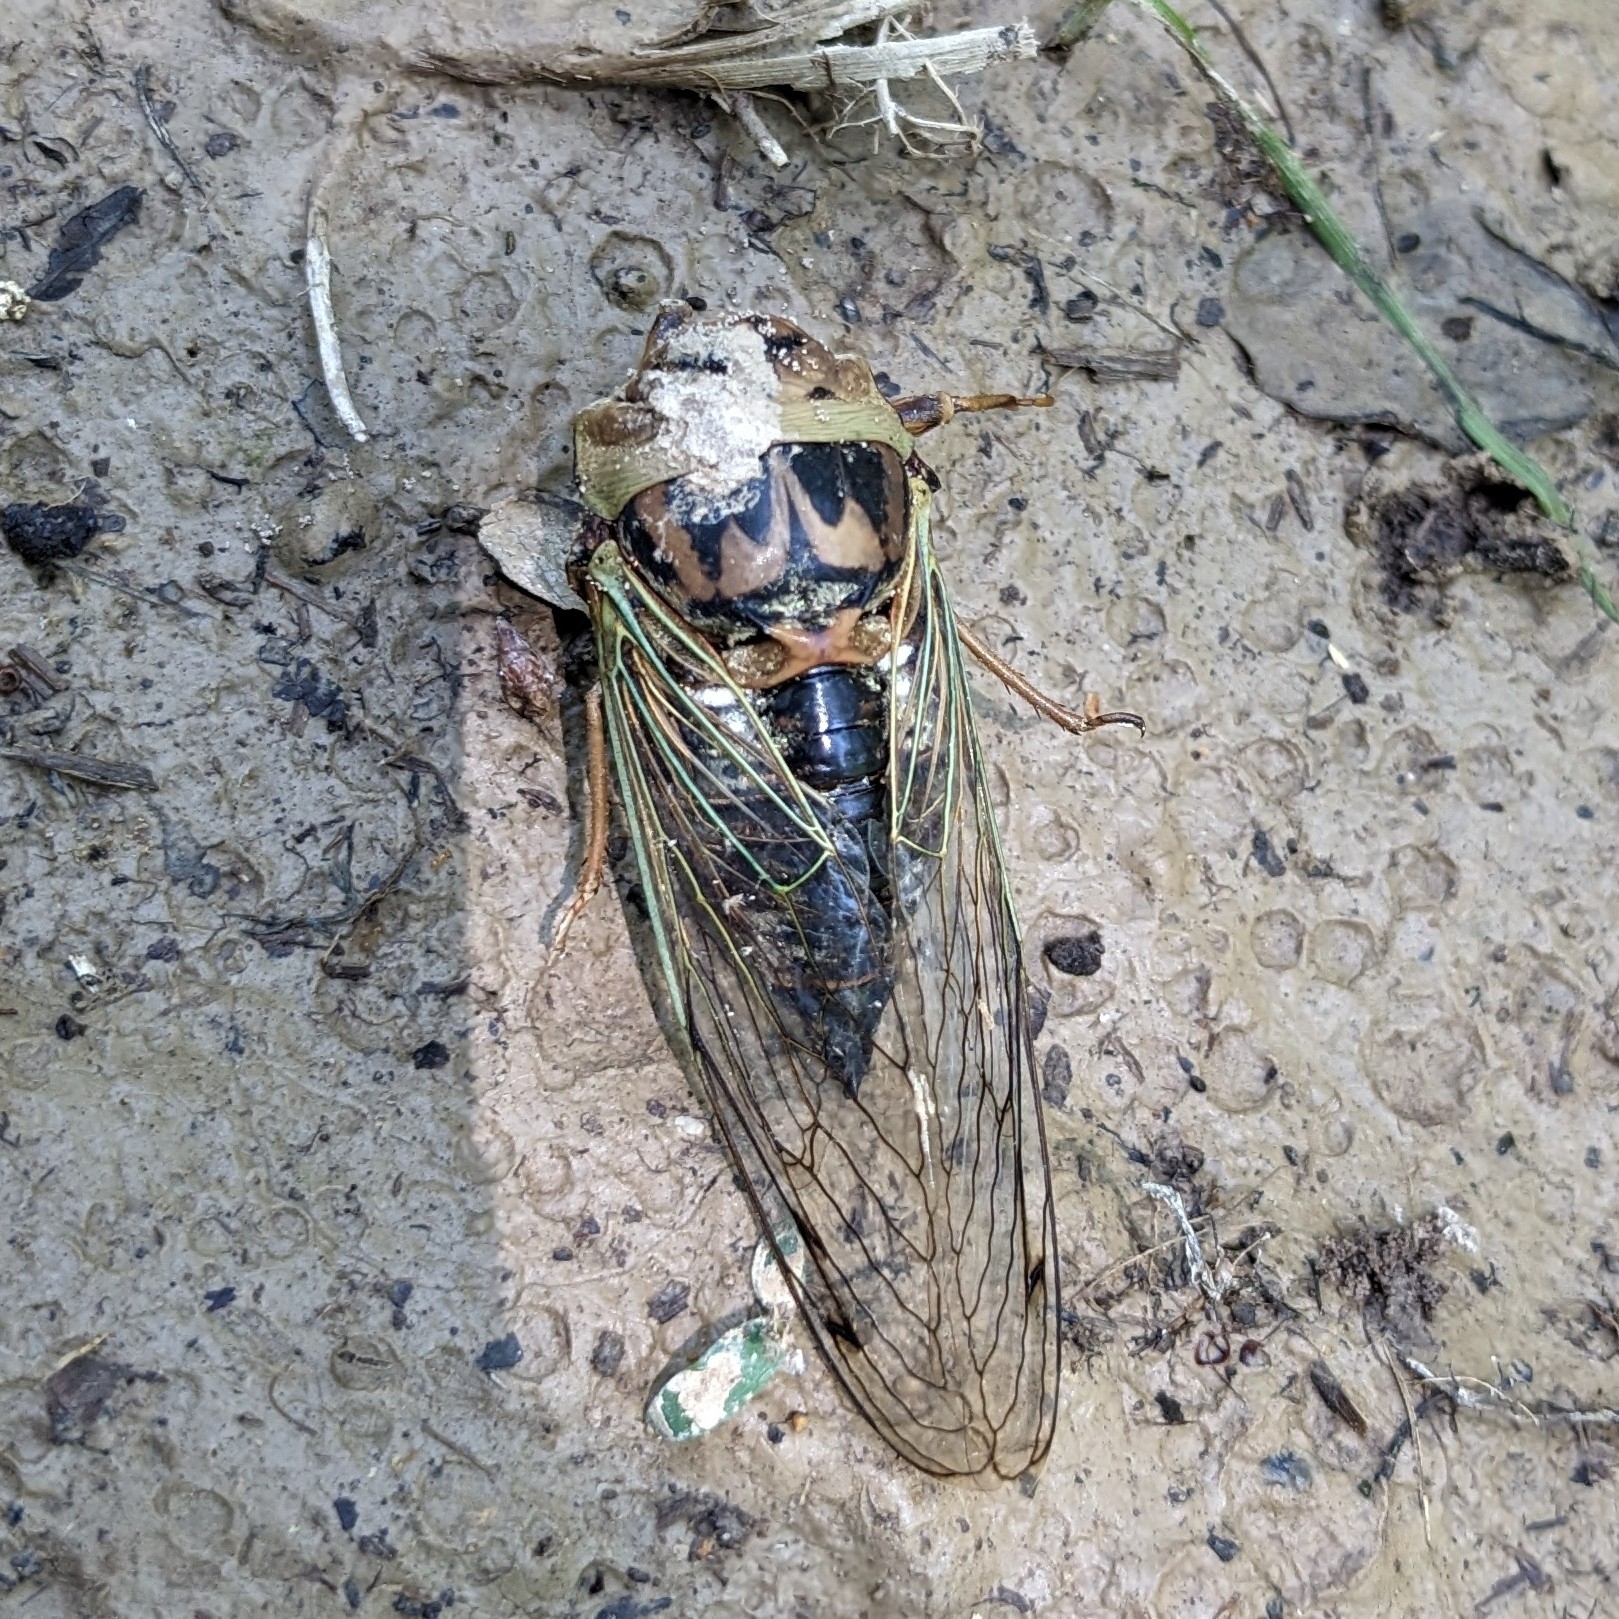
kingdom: Animalia
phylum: Arthropoda
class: Insecta
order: Hemiptera
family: Cicadidae
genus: Megatibicen
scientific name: Megatibicen resh
